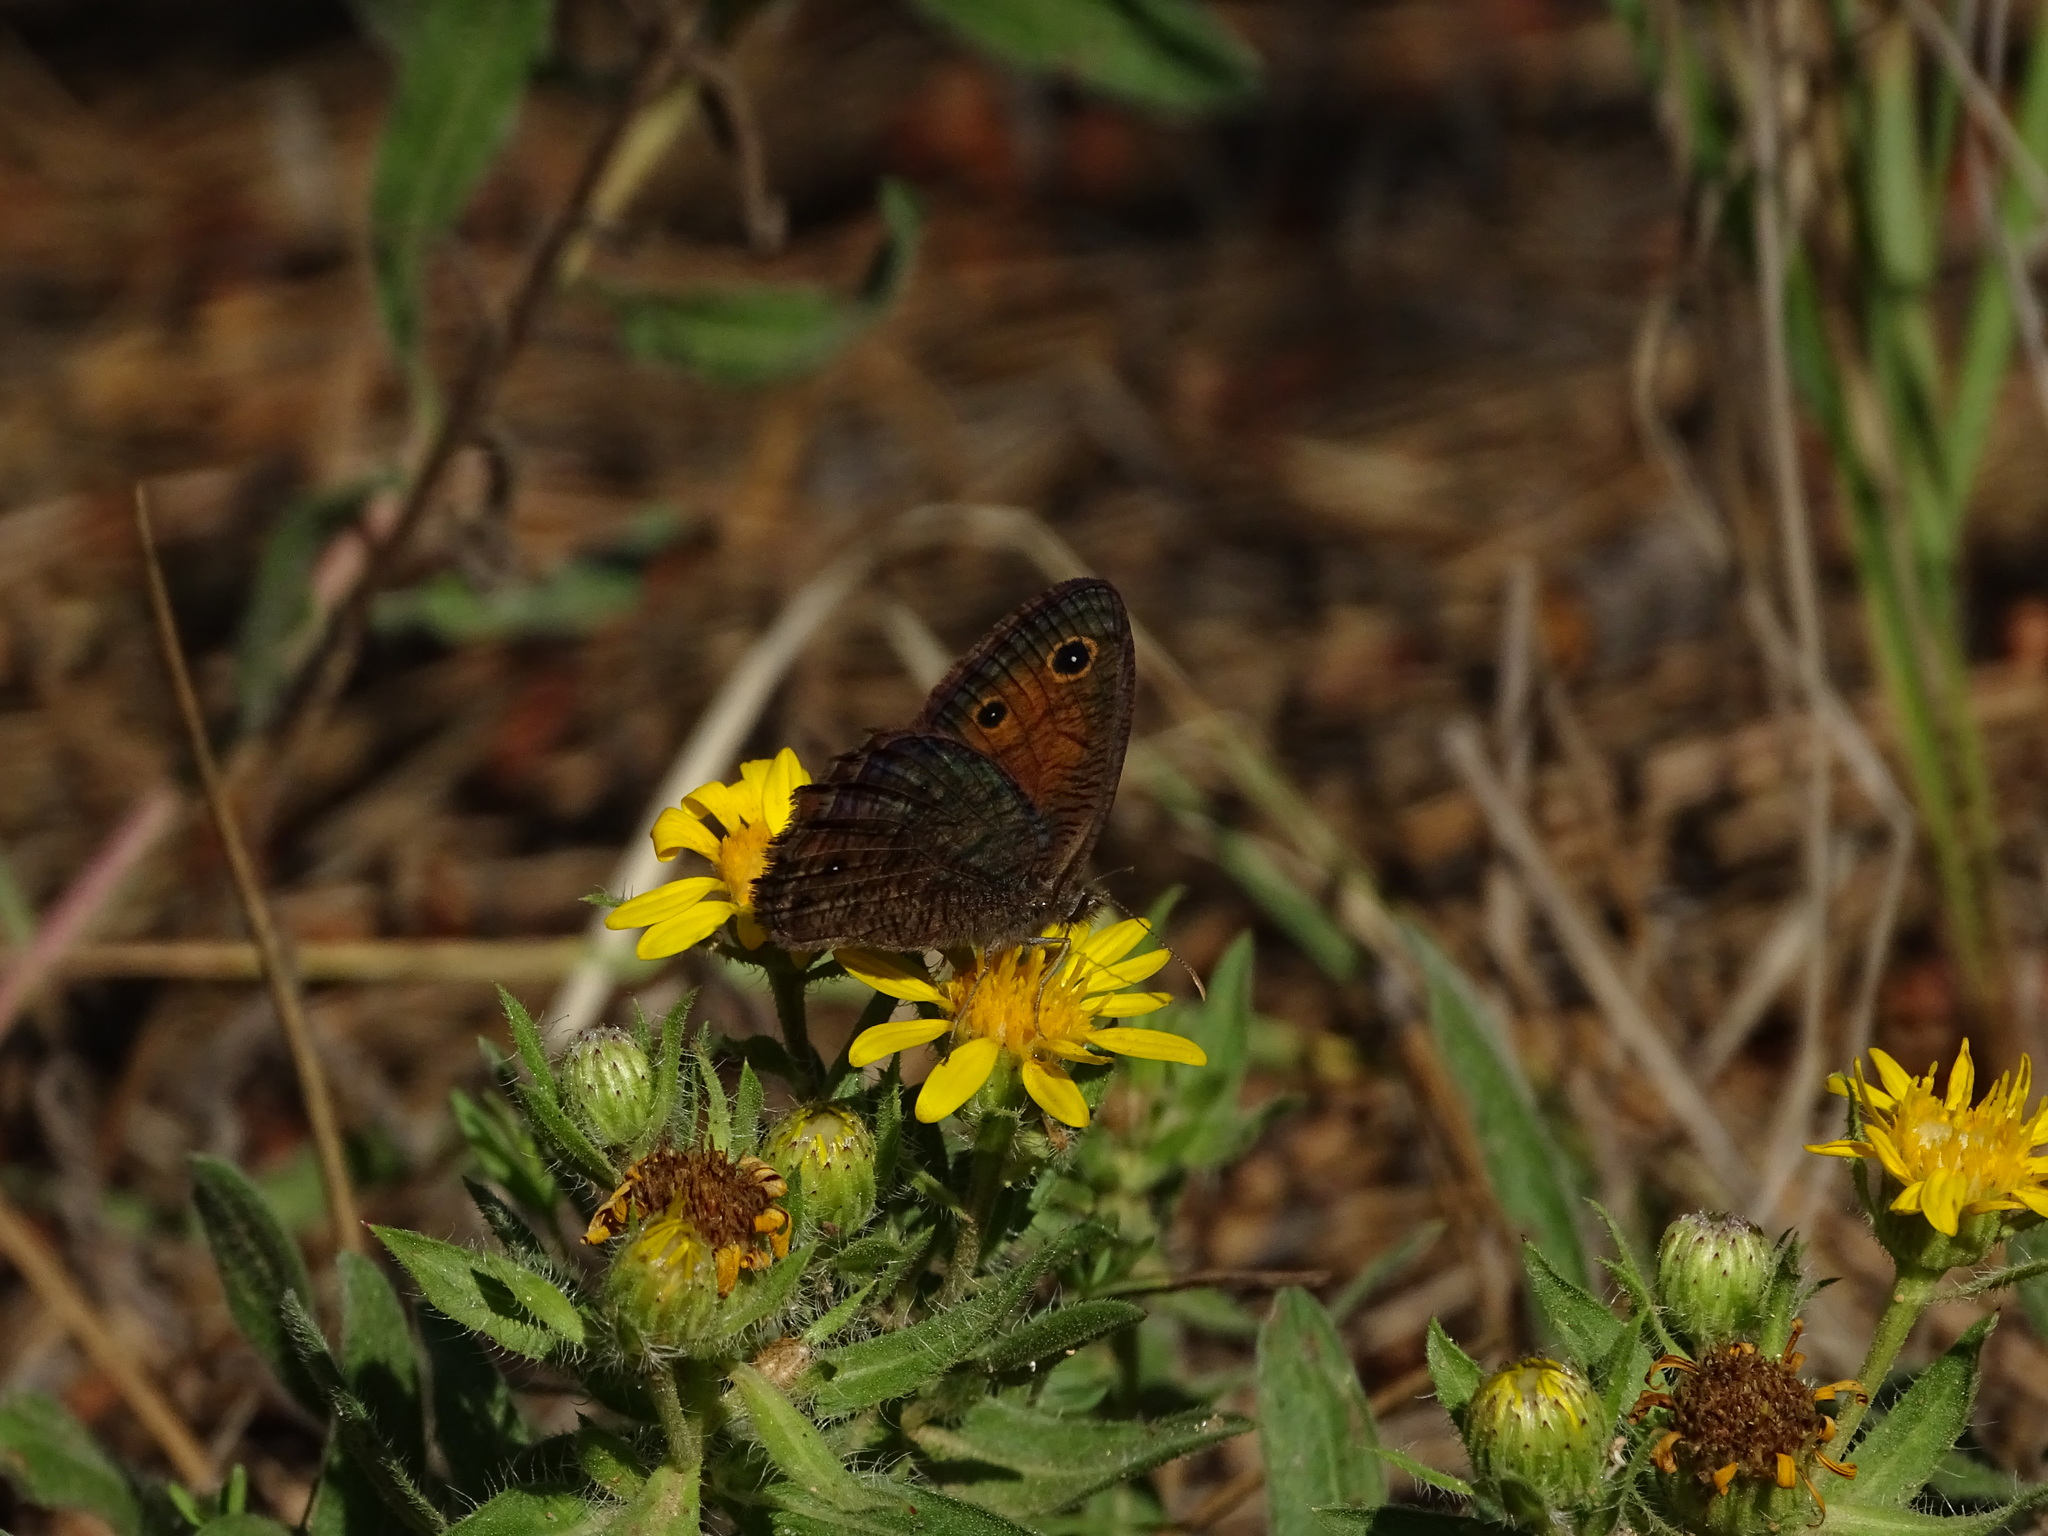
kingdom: Animalia
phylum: Arthropoda
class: Insecta
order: Lepidoptera
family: Nymphalidae
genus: Cercyonis
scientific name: Cercyonis meadi
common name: Mead's wood-nymph
